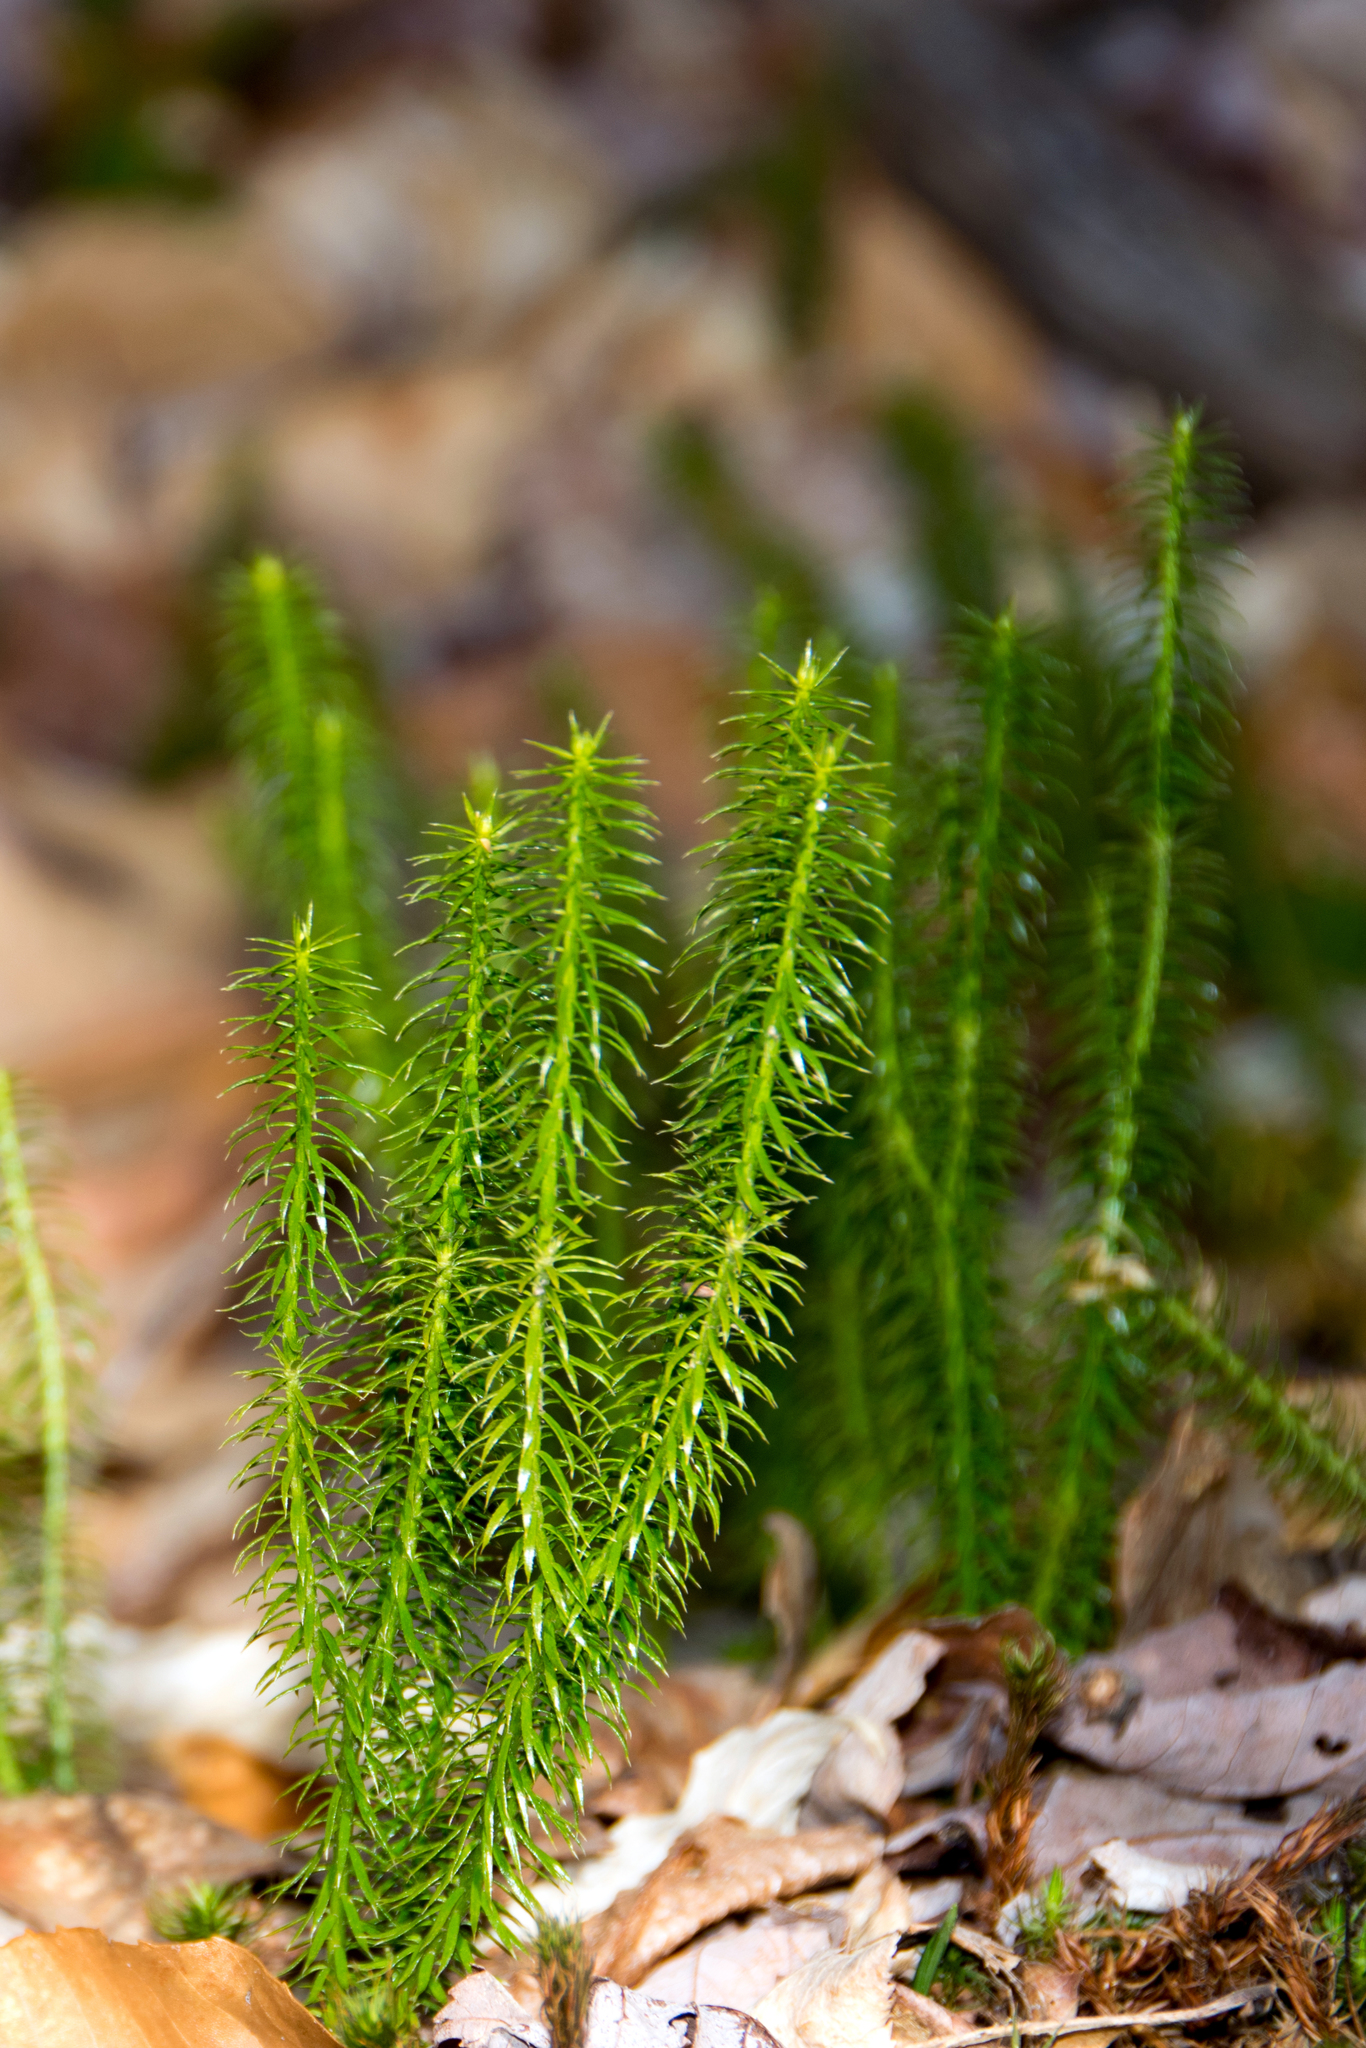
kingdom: Plantae
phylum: Tracheophyta
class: Lycopodiopsida
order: Lycopodiales
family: Lycopodiaceae
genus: Spinulum
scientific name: Spinulum annotinum
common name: Interrupted club-moss
